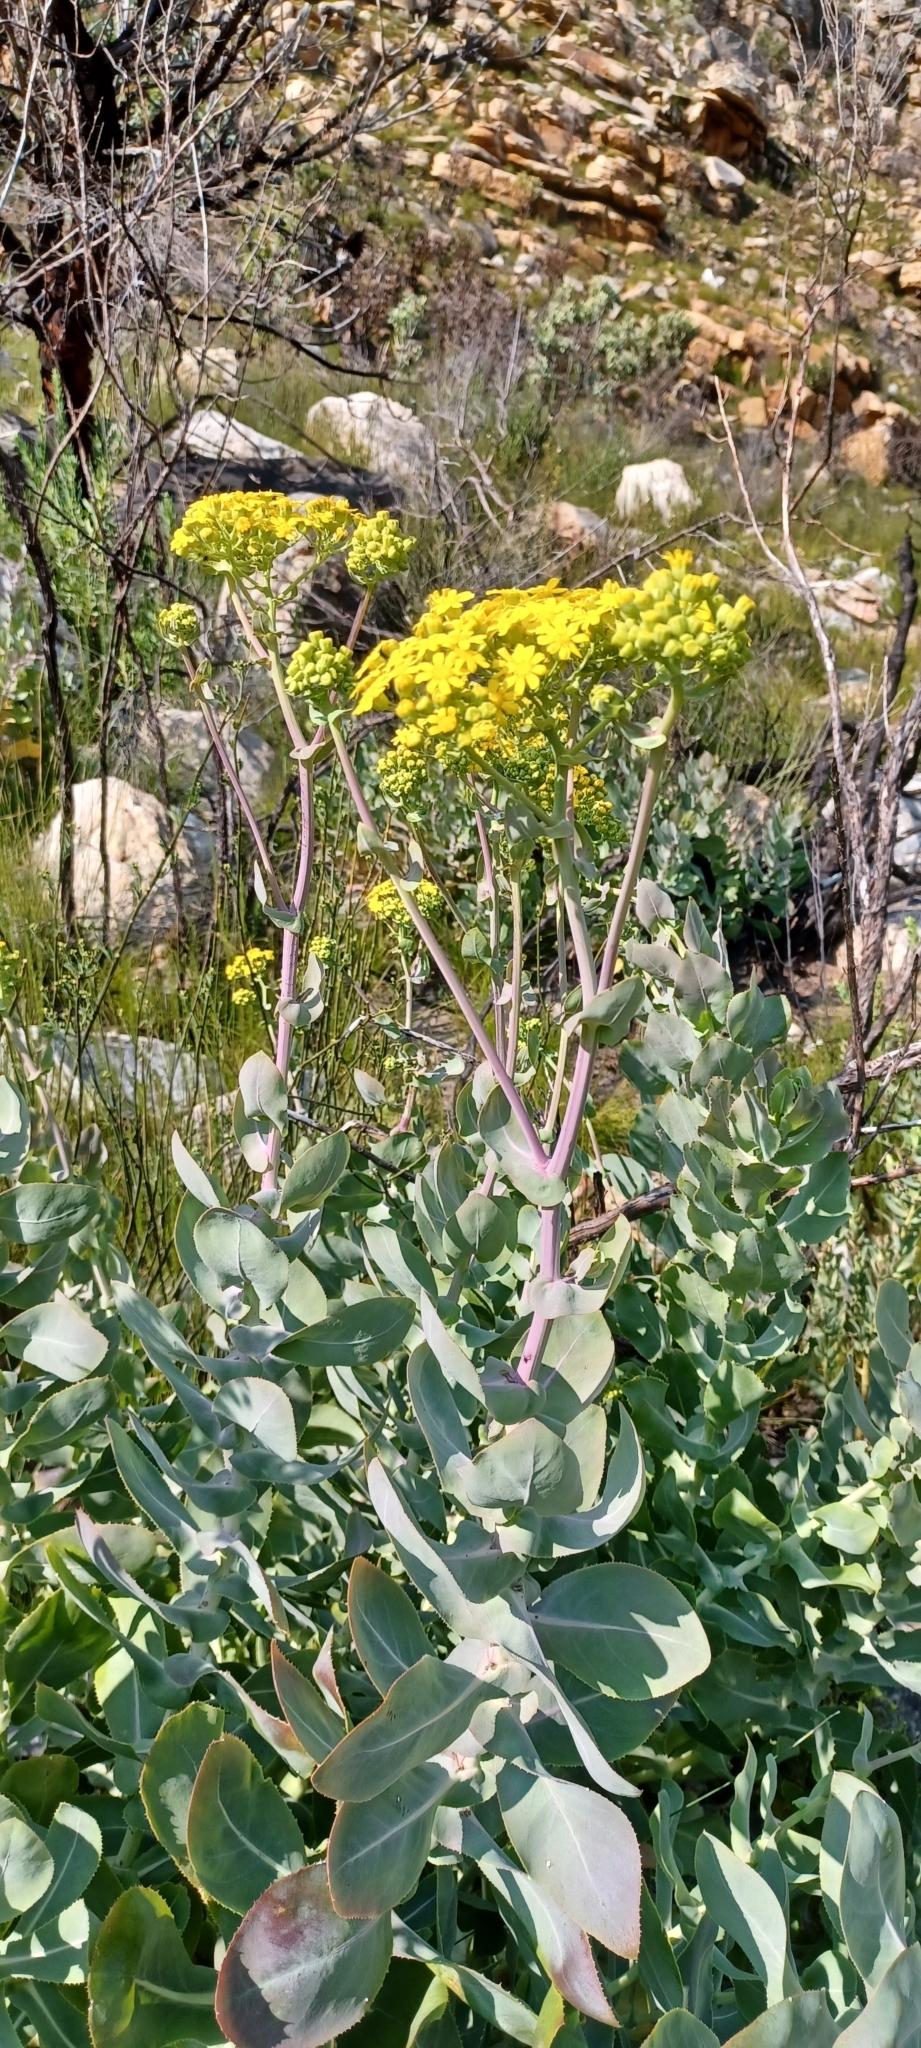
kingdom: Plantae
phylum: Tracheophyta
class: Magnoliopsida
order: Asterales
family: Asteraceae
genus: Othonna
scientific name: Othonna parviflora
